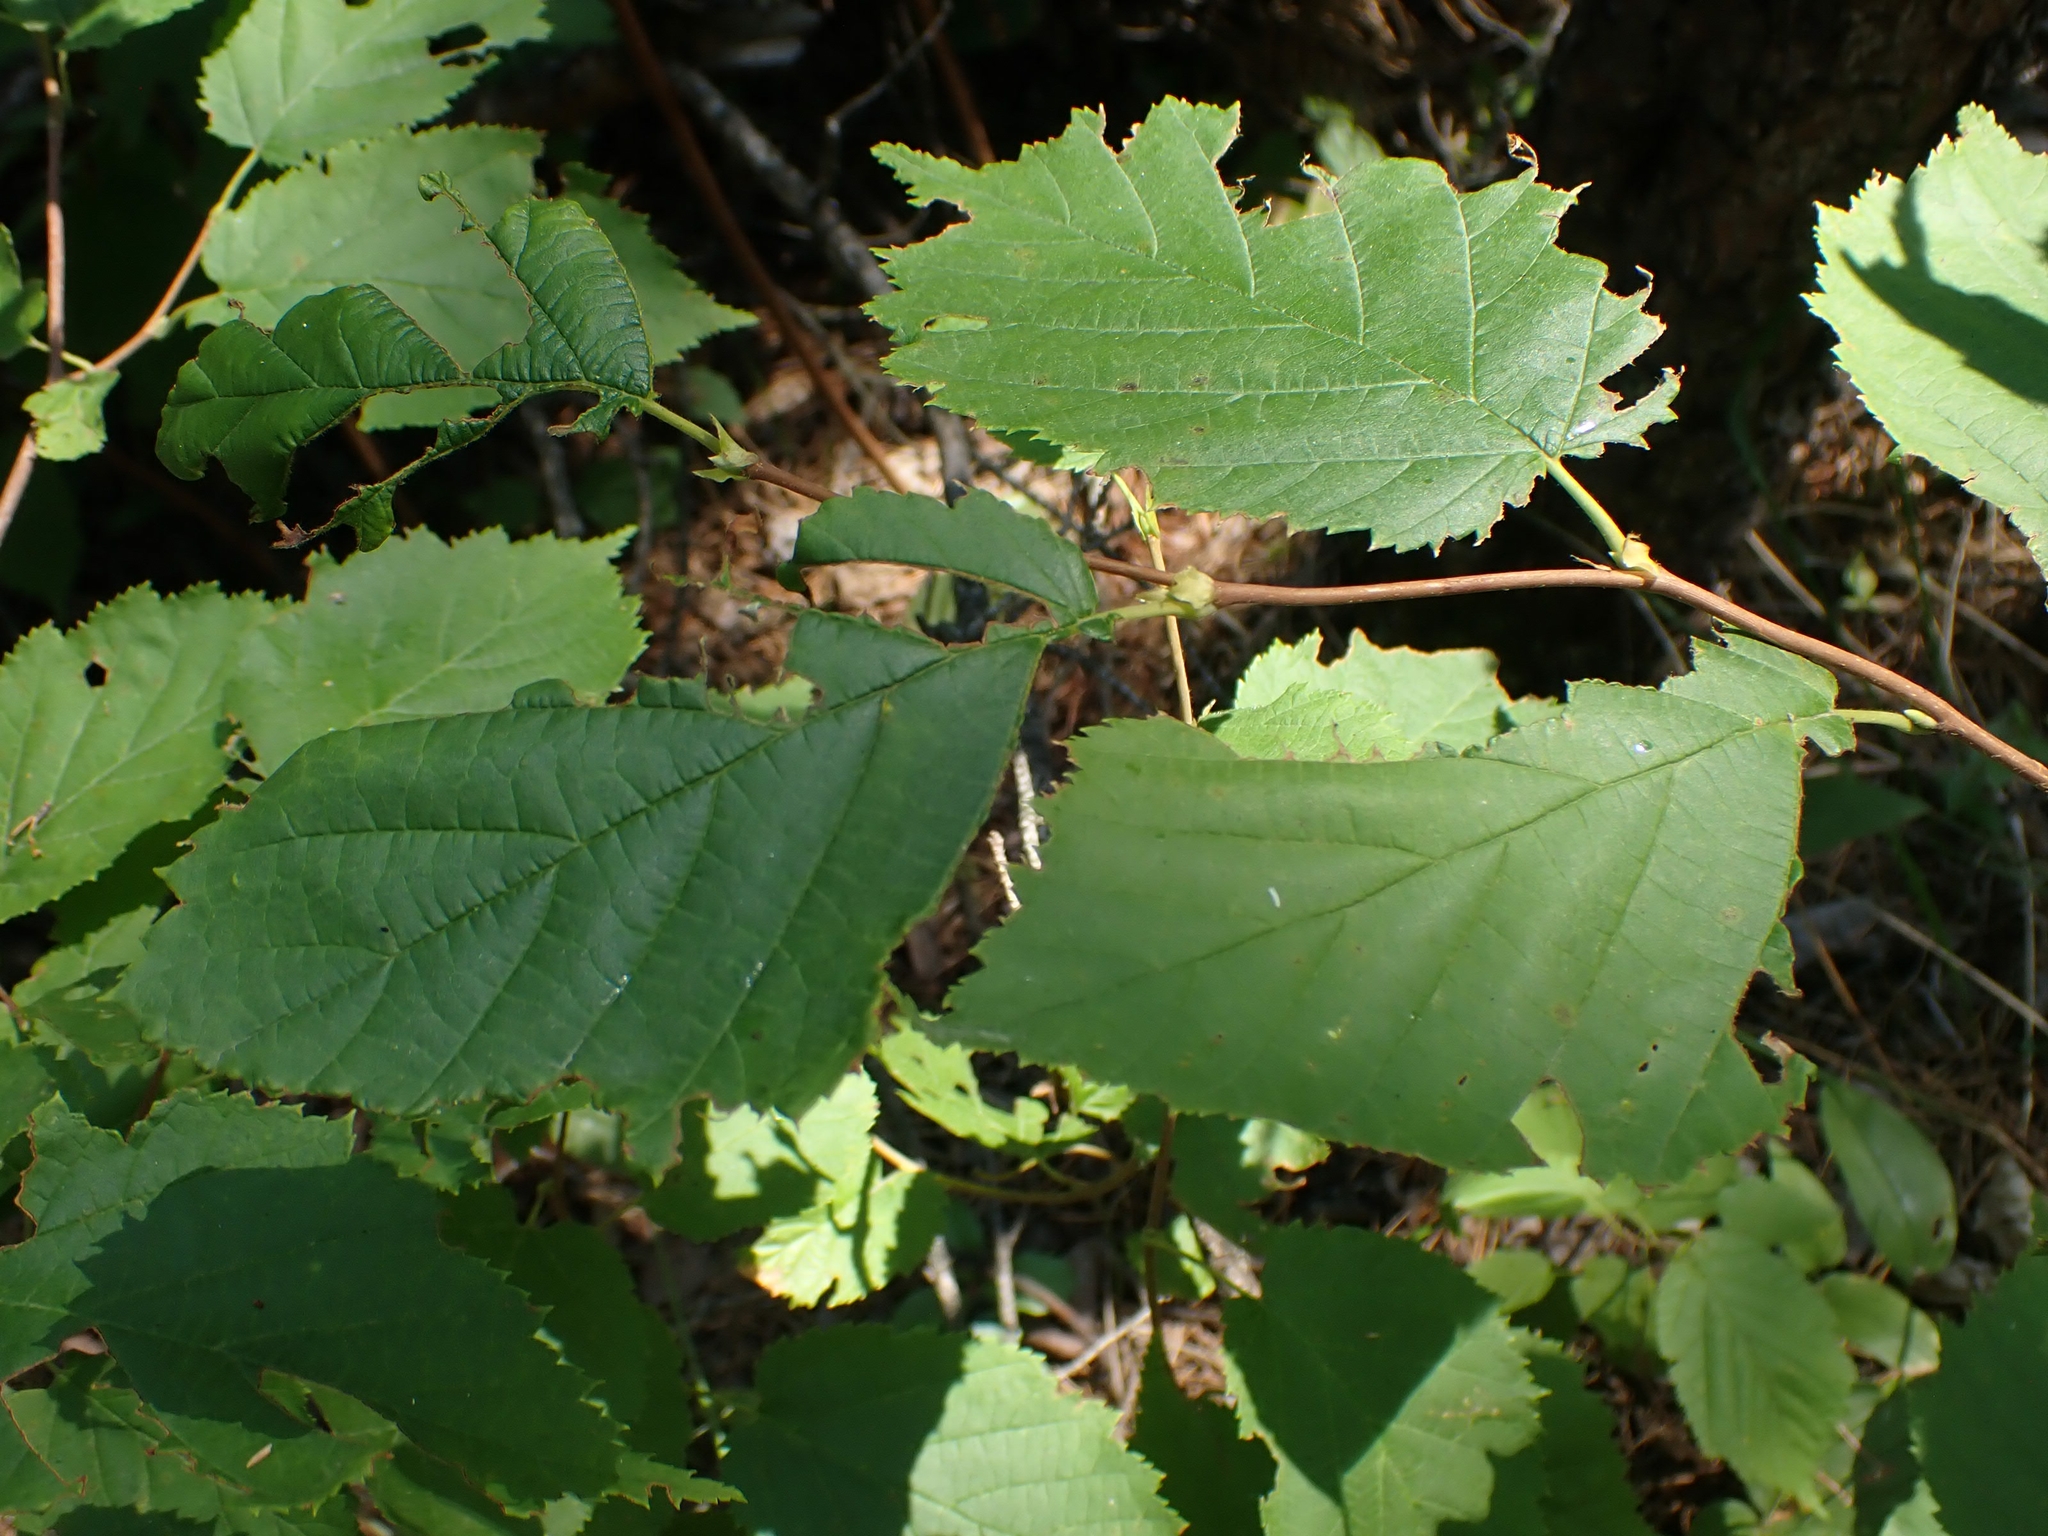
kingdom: Plantae
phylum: Tracheophyta
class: Magnoliopsida
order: Fagales
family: Betulaceae
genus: Corylus
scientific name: Corylus cornuta
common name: Beaked hazel
